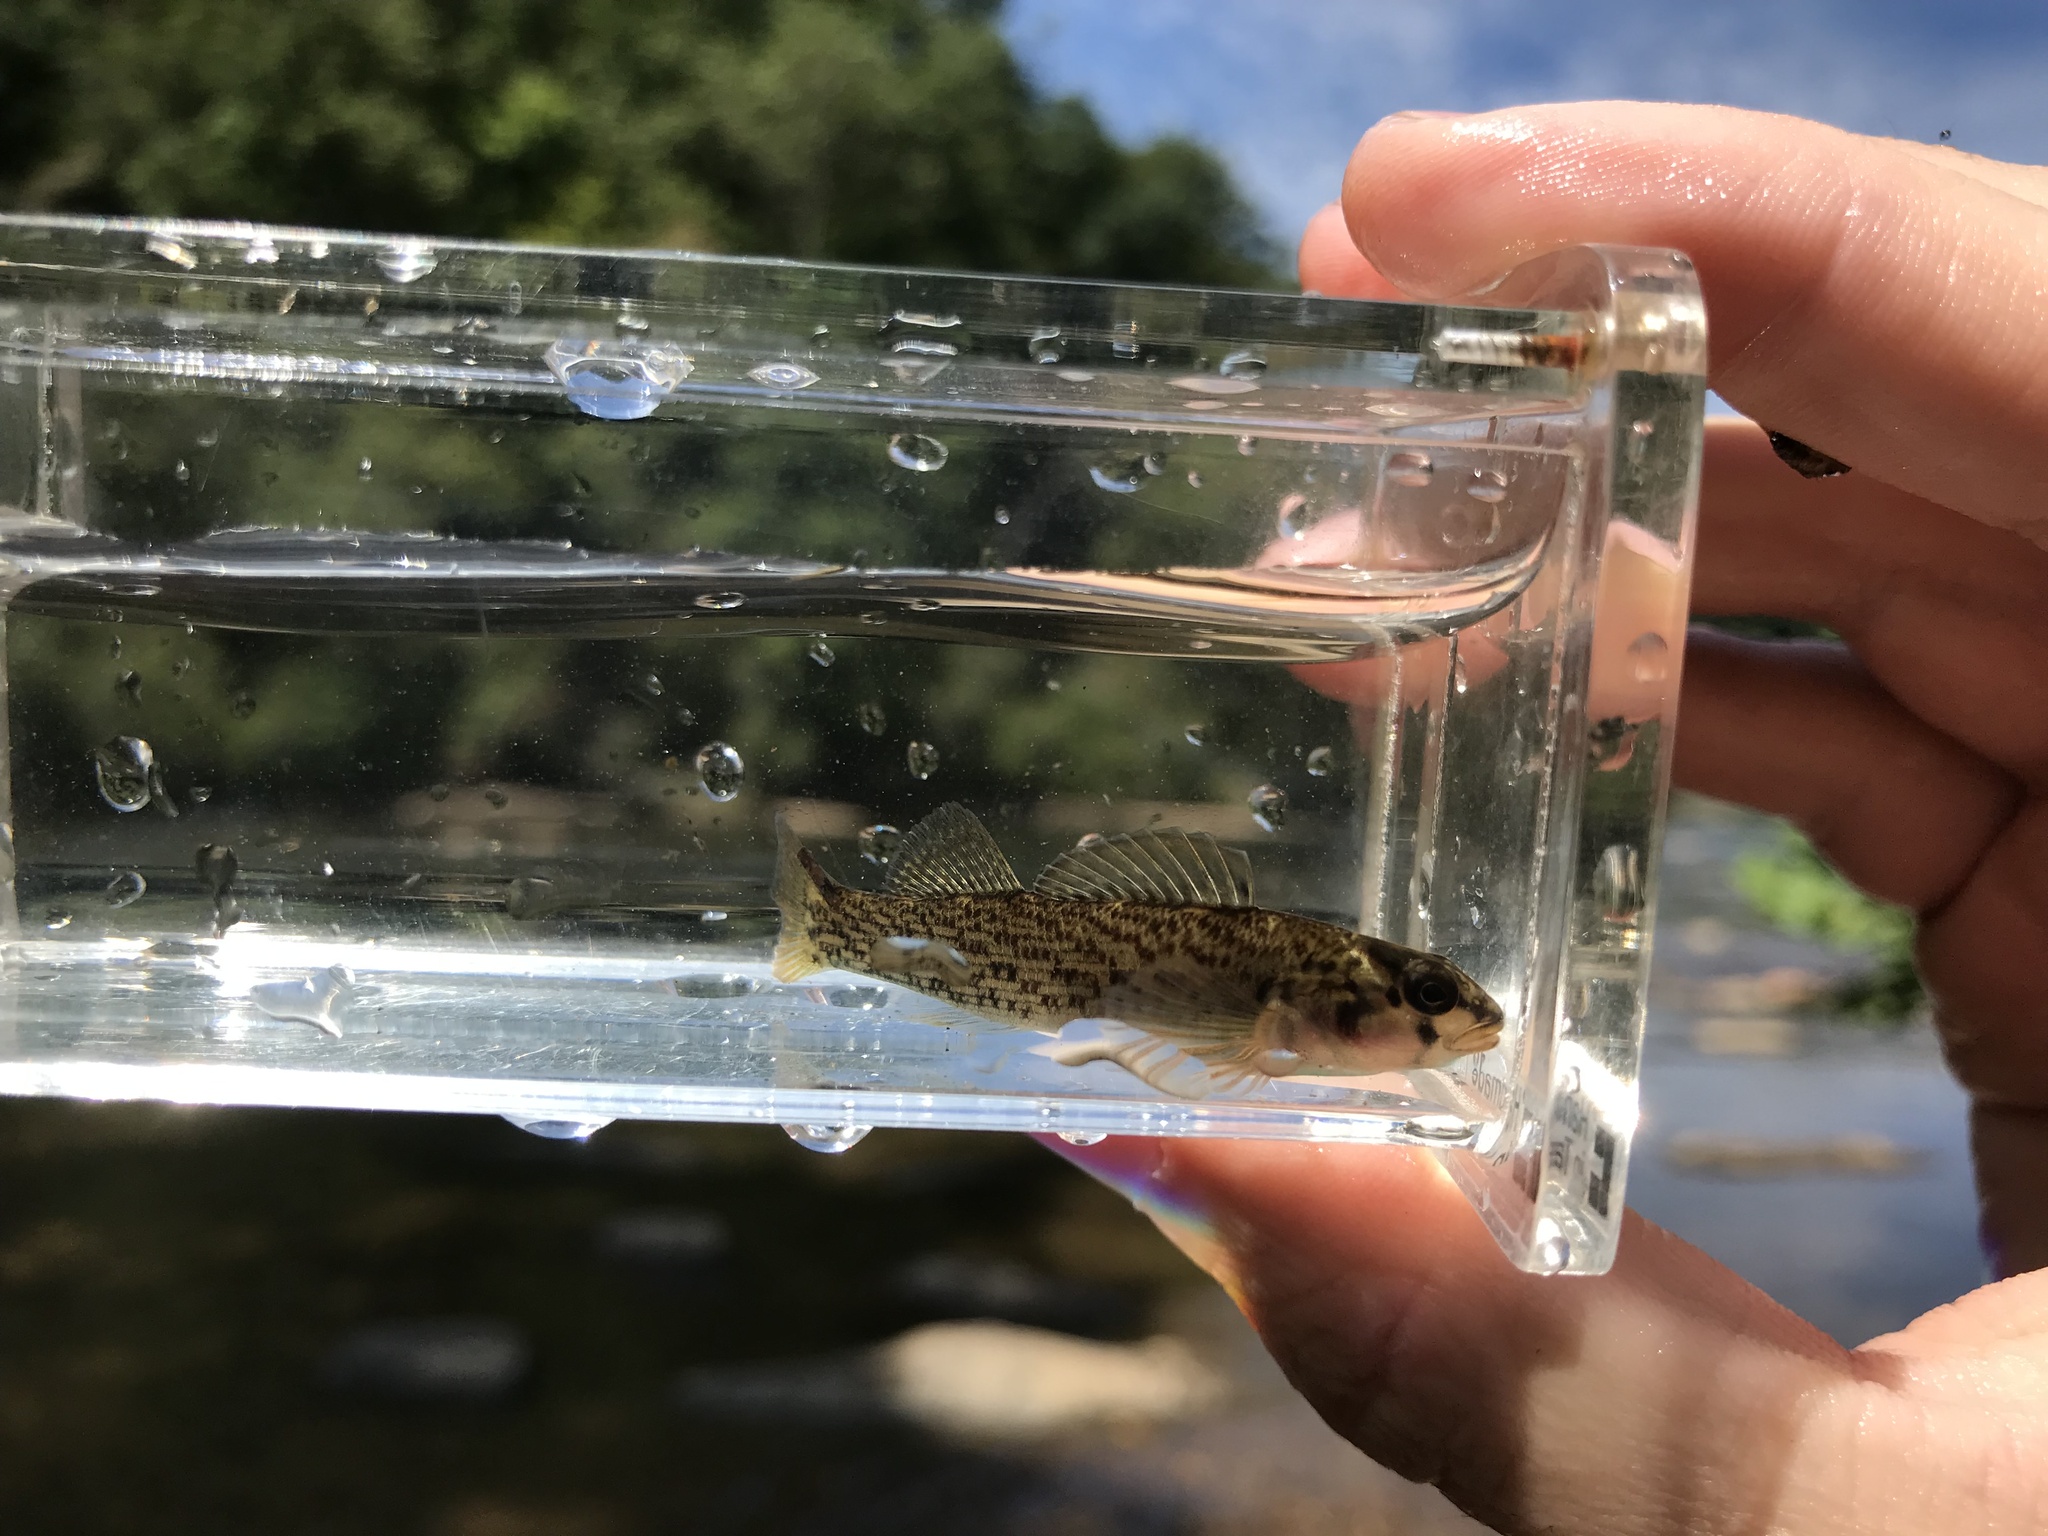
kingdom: Animalia
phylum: Chordata
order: Perciformes
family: Percidae
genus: Etheostoma
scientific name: Etheostoma chlorobranchium
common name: Greenfin darter
